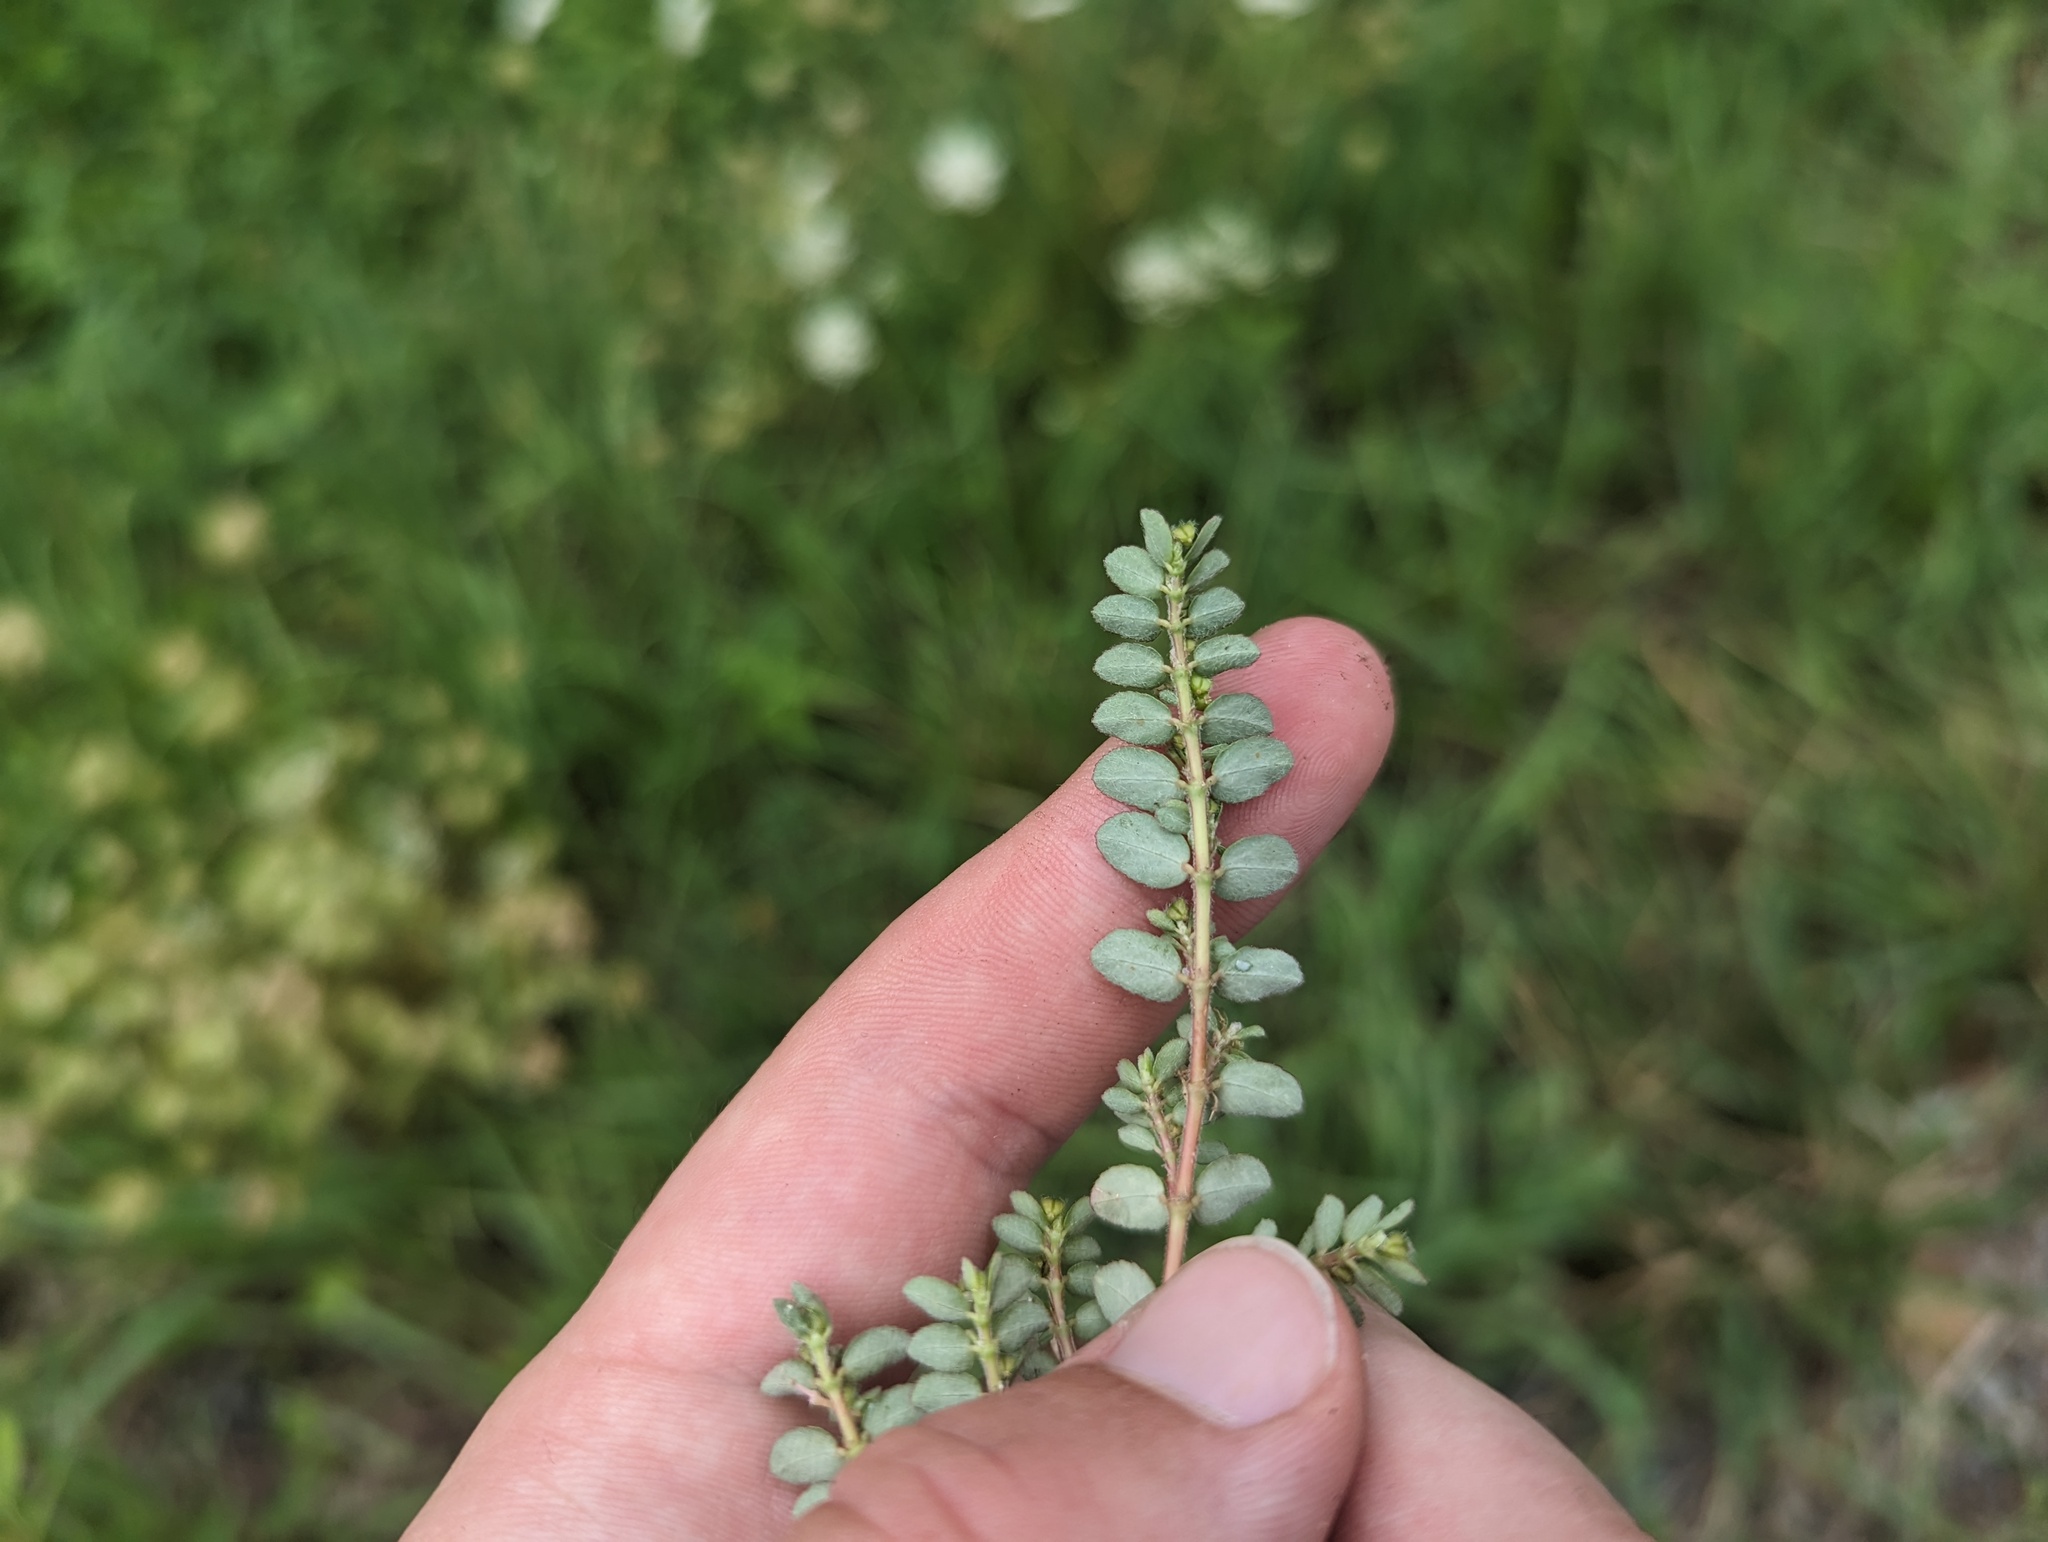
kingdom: Plantae
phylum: Tracheophyta
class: Magnoliopsida
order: Malpighiales
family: Euphorbiaceae
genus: Euphorbia
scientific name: Euphorbia prostrata
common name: Prostrate sandmat
